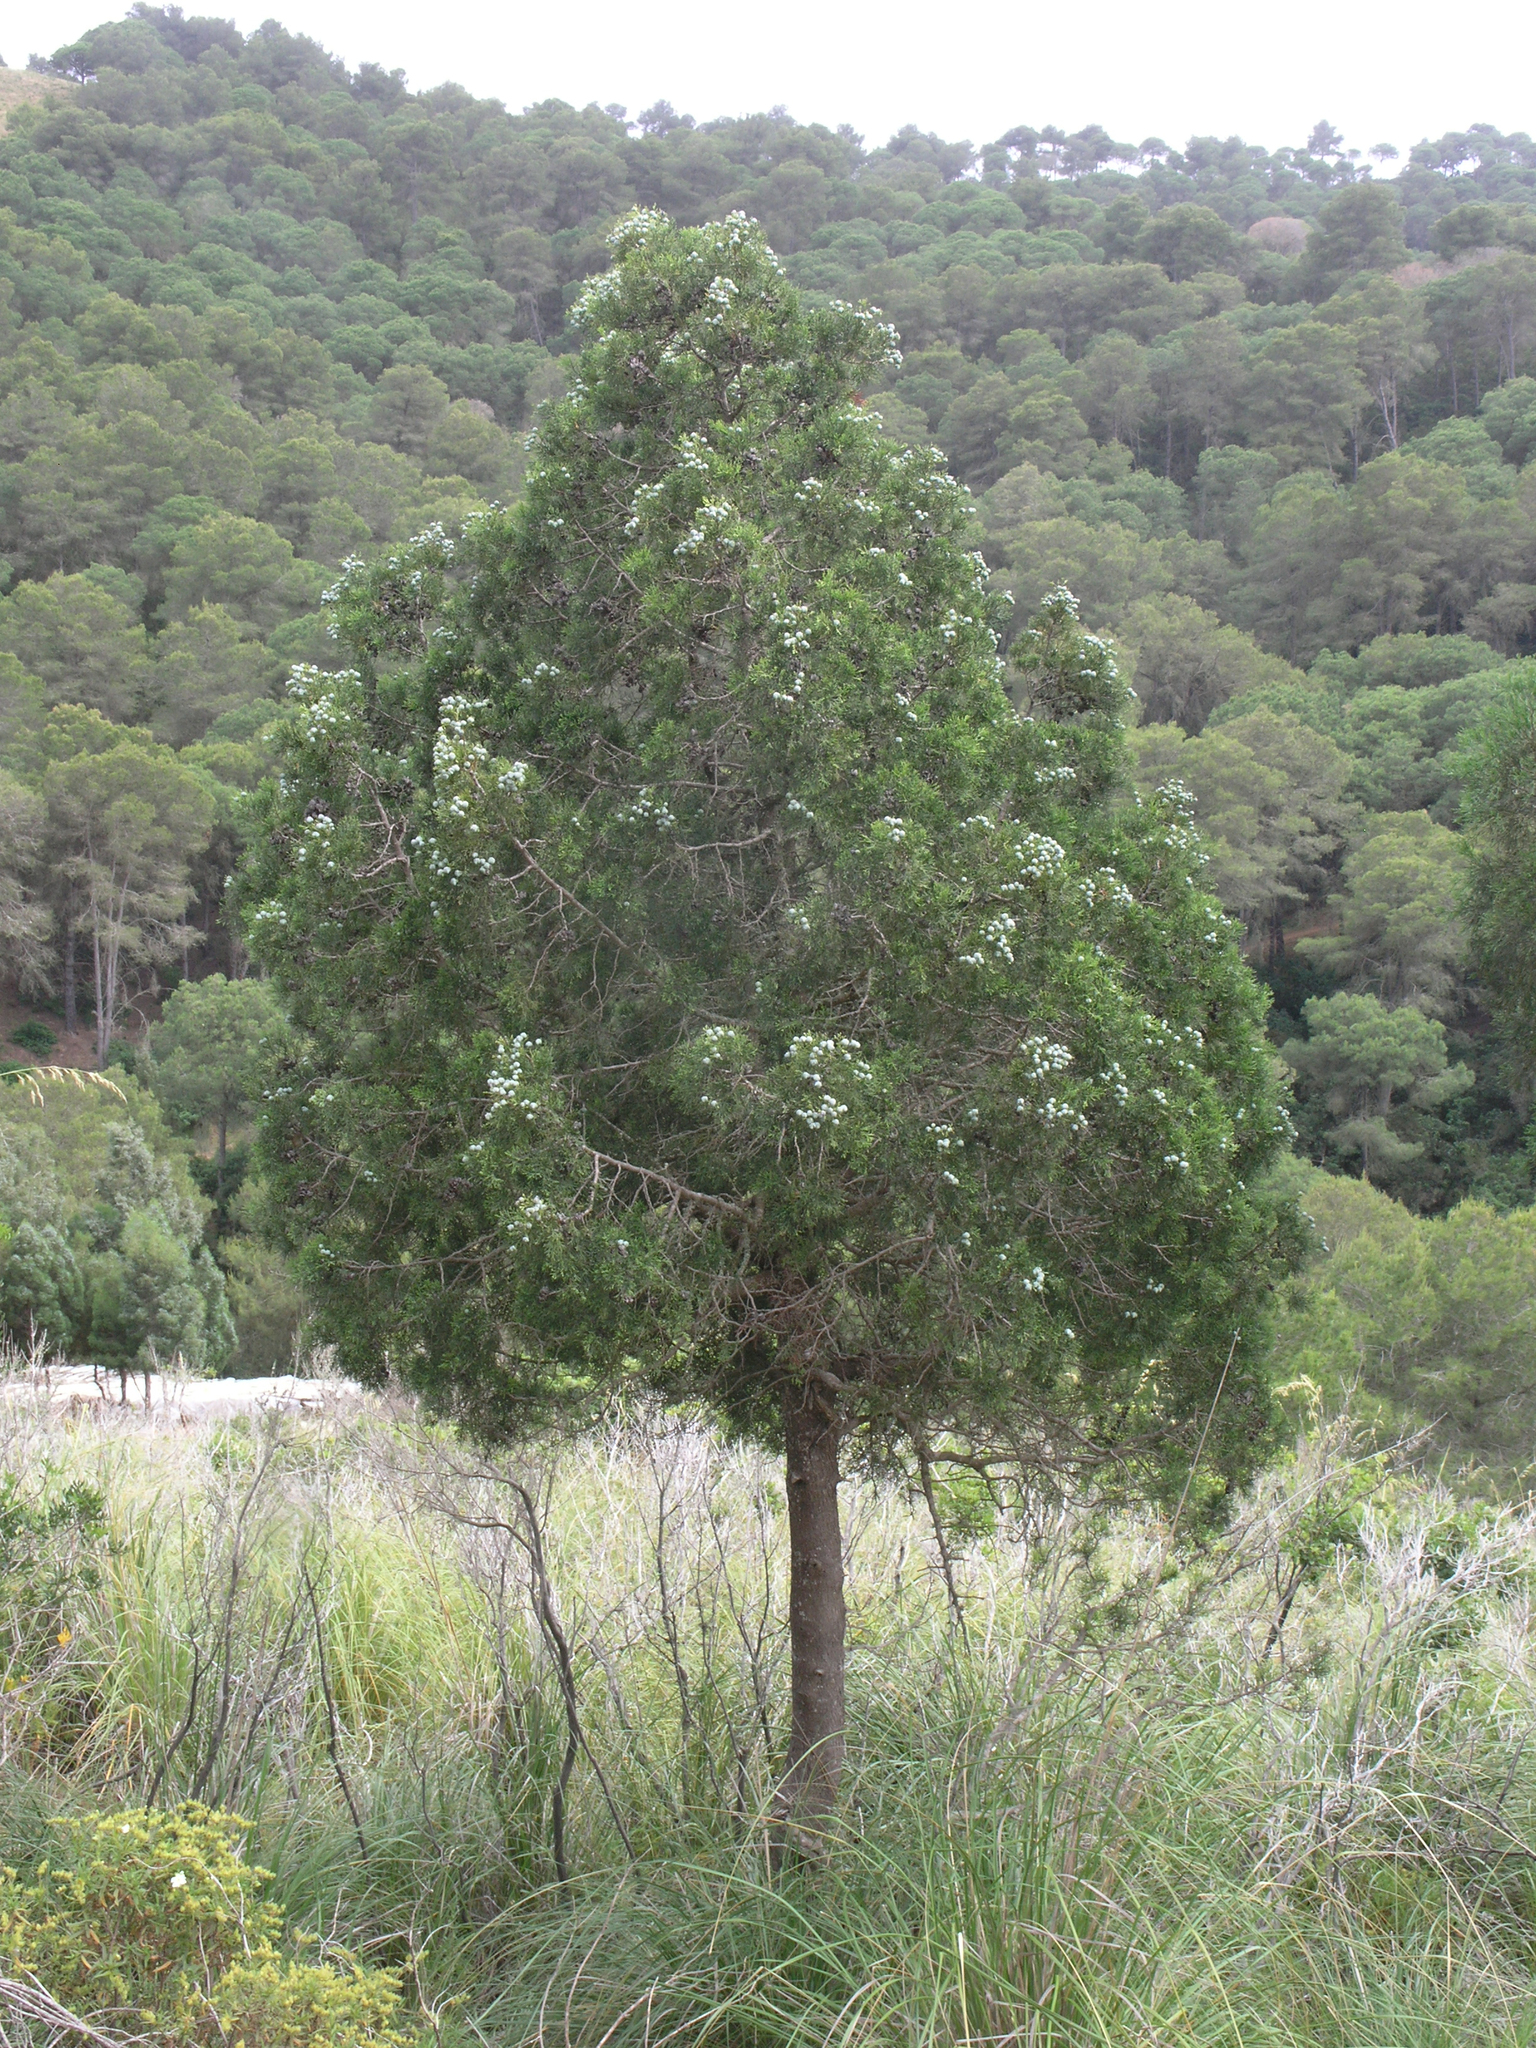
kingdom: Plantae
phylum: Tracheophyta
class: Pinopsida
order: Pinales
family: Cupressaceae
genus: Tetraclinis
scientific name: Tetraclinis articulata
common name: Sandarac
